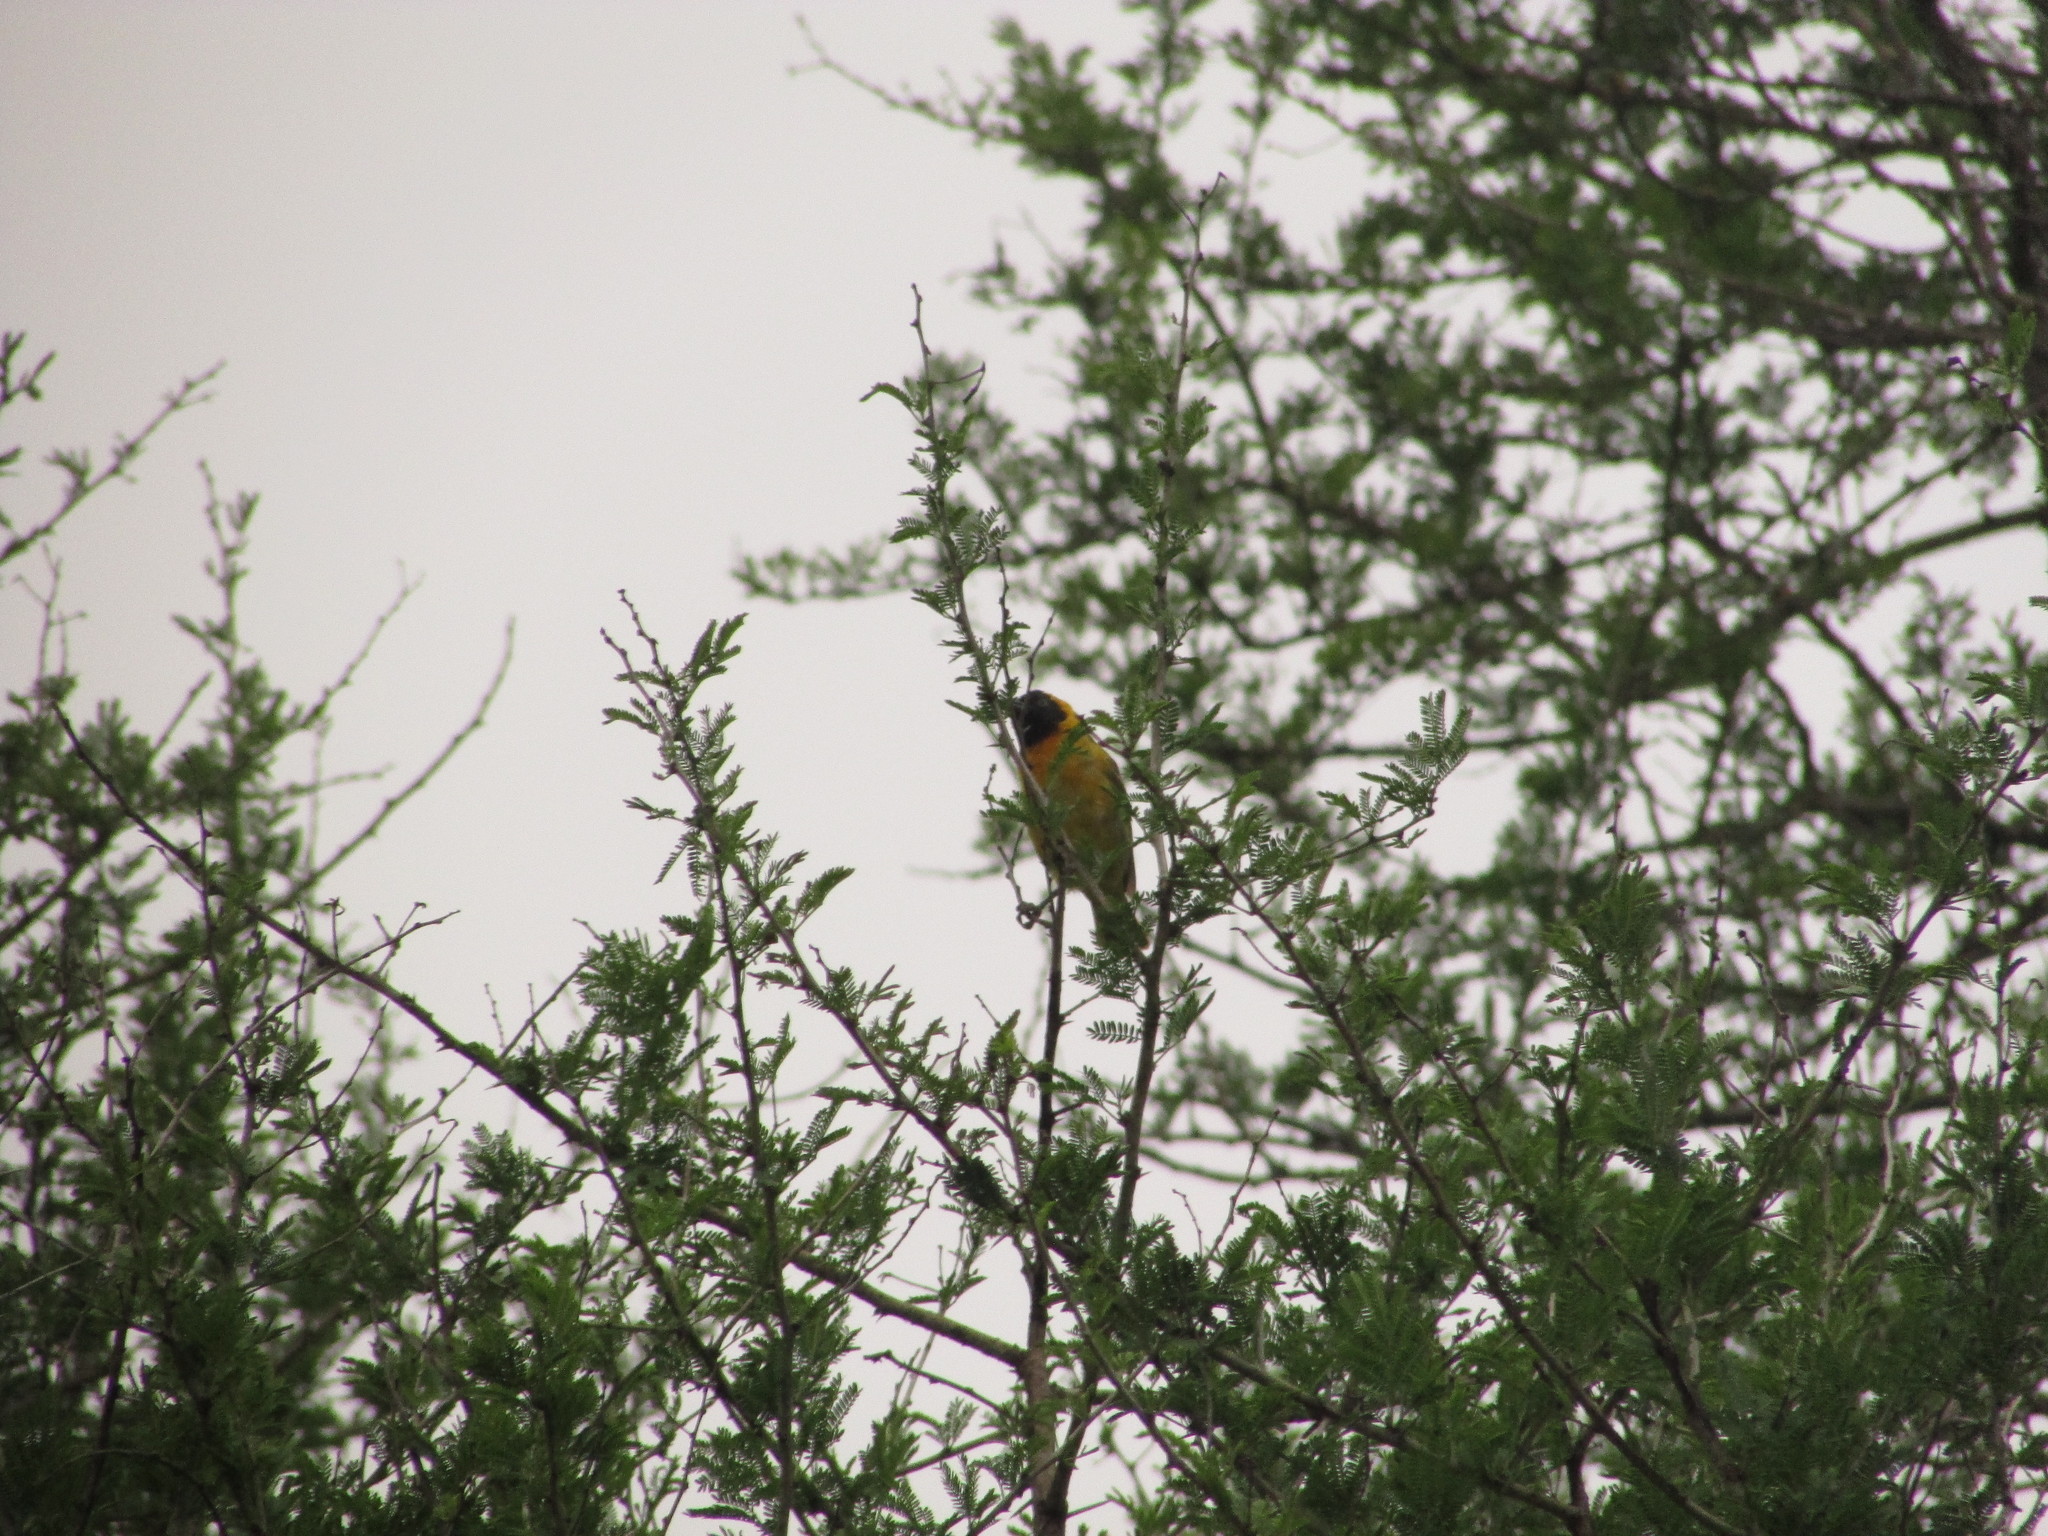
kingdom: Animalia
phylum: Chordata
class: Aves
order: Passeriformes
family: Ploceidae
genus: Ploceus
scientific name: Ploceus intermedius
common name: Lesser masked weaver
